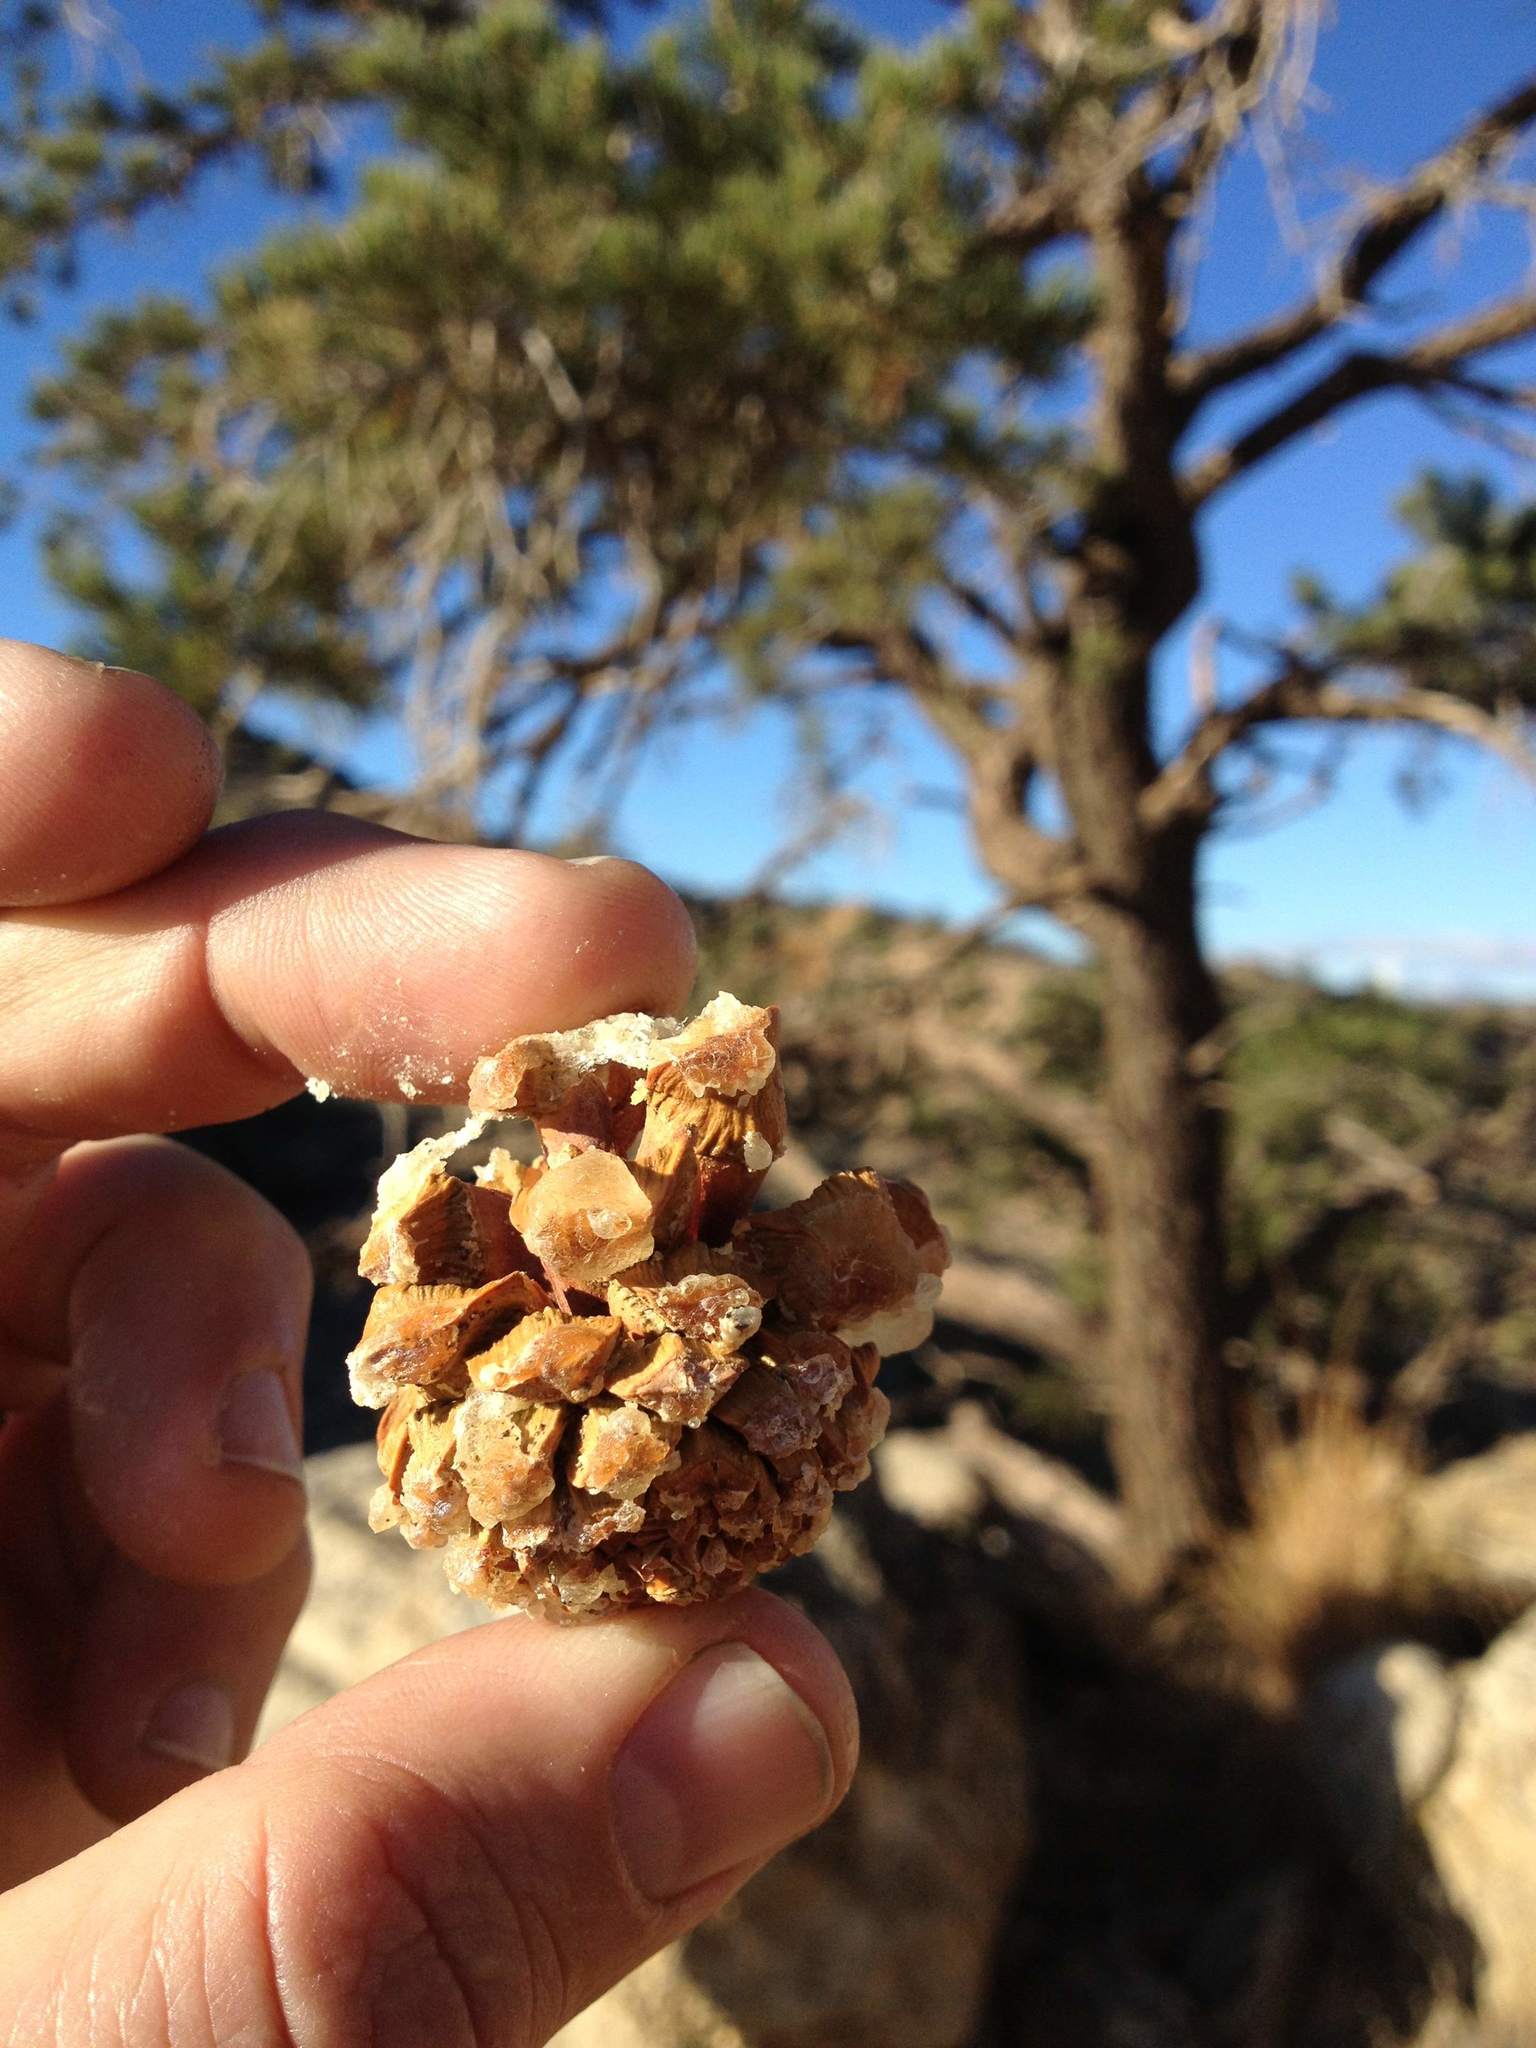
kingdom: Plantae
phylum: Tracheophyta
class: Pinopsida
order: Pinales
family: Pinaceae
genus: Pinus
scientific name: Pinus monophylla
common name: One-leaved nut pine
